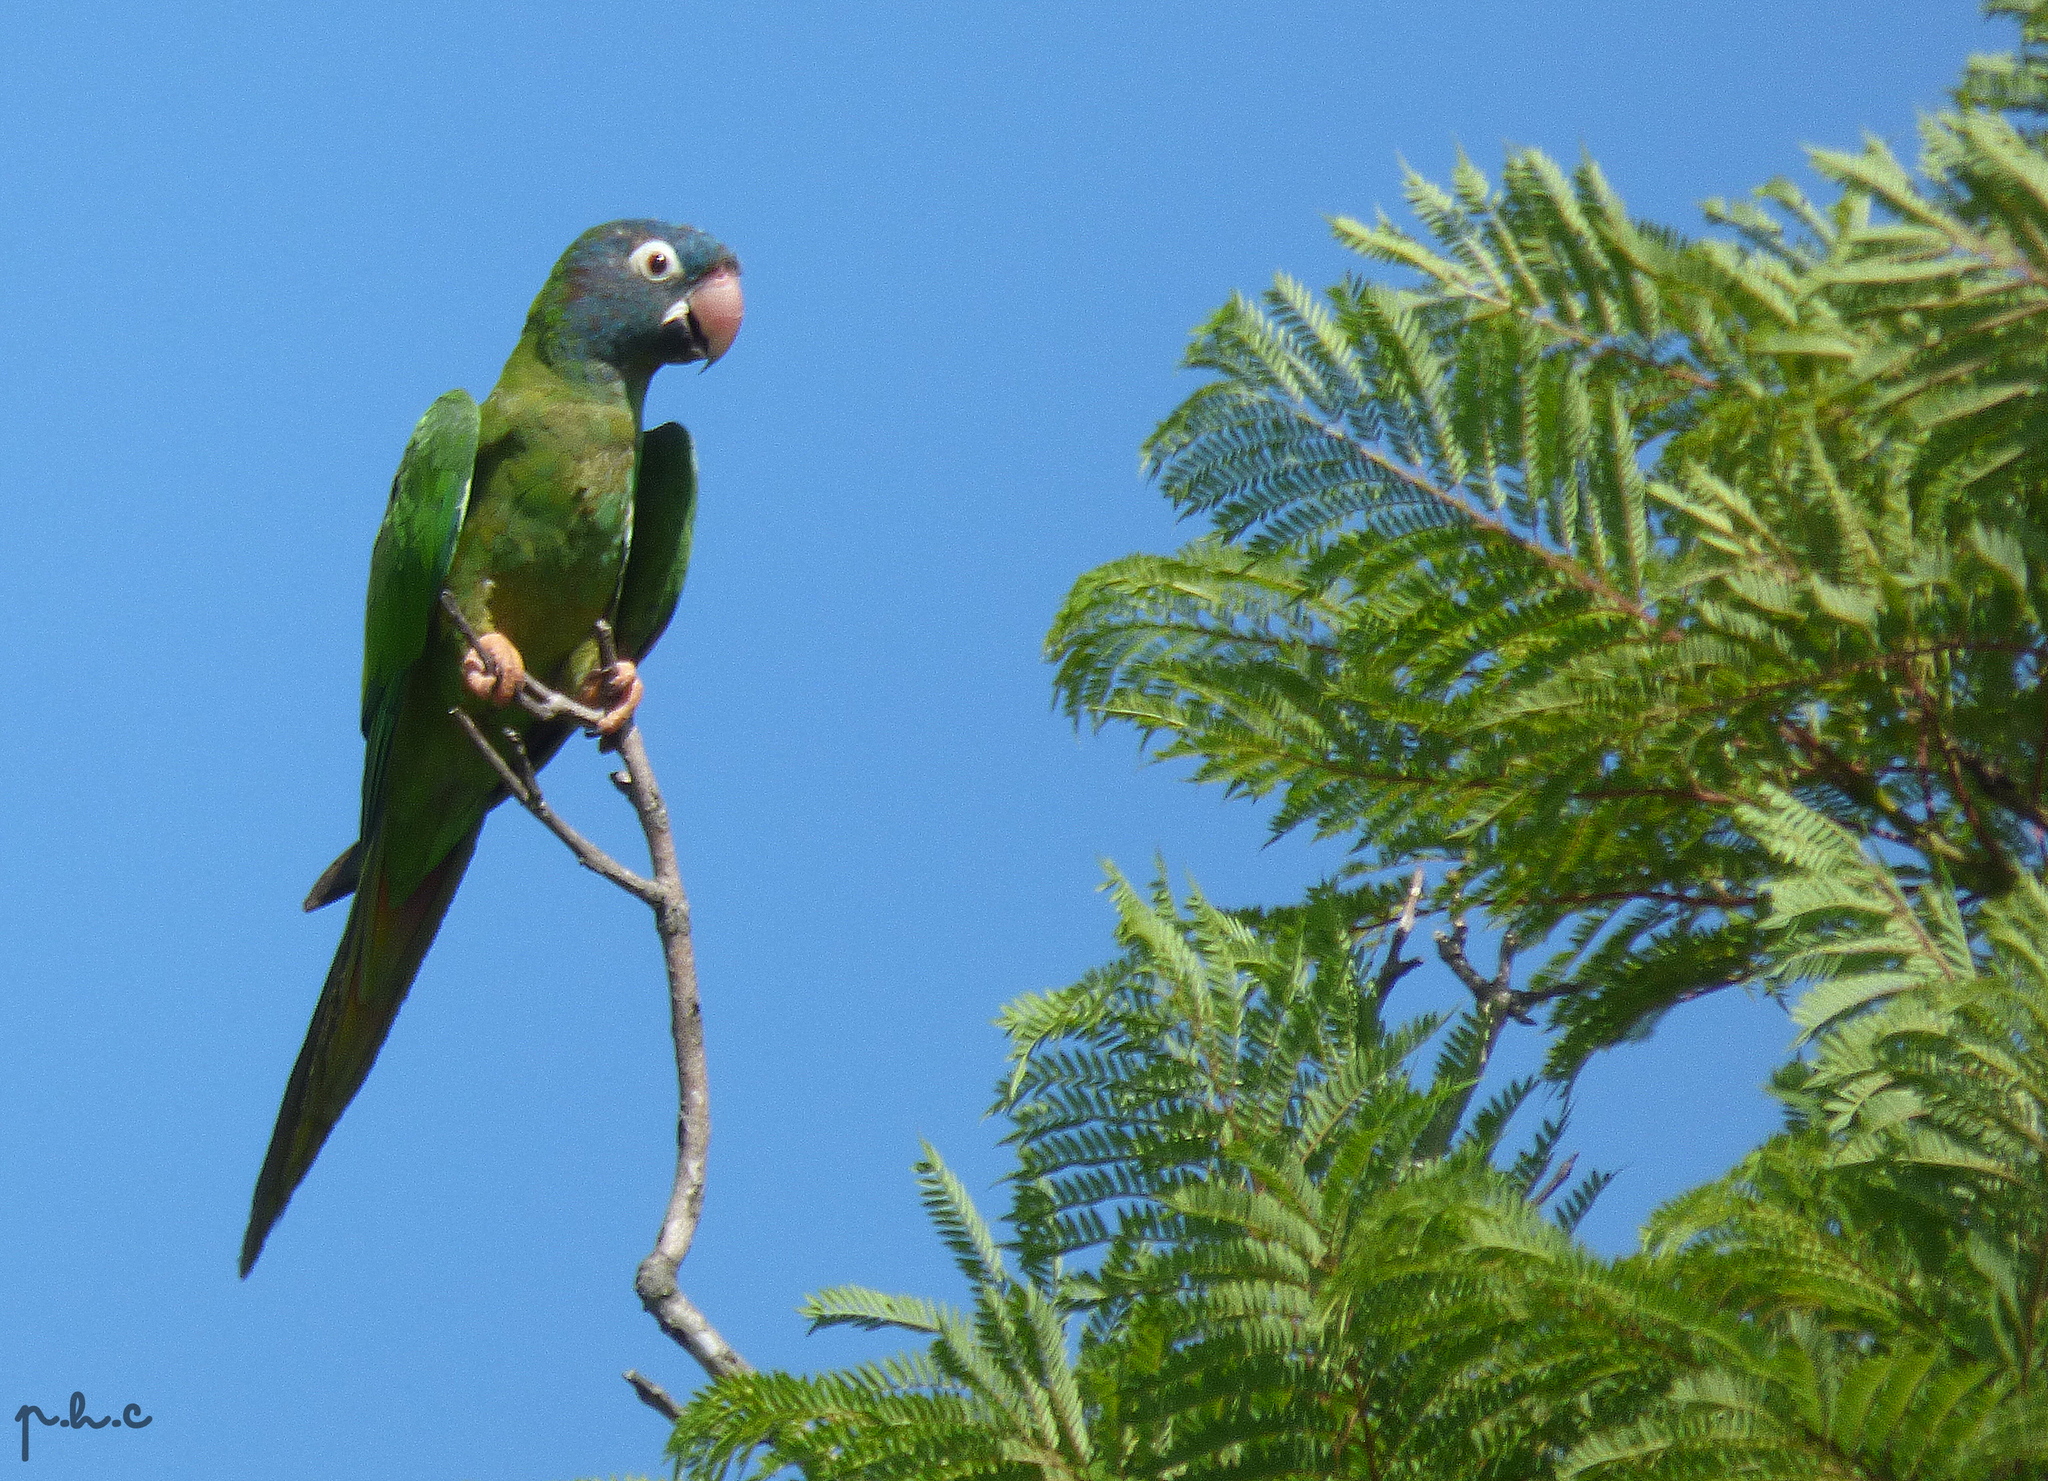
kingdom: Animalia
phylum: Chordata
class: Aves
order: Psittaciformes
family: Psittacidae
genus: Aratinga
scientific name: Aratinga acuticaudata
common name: Blue-crowned parakeet
